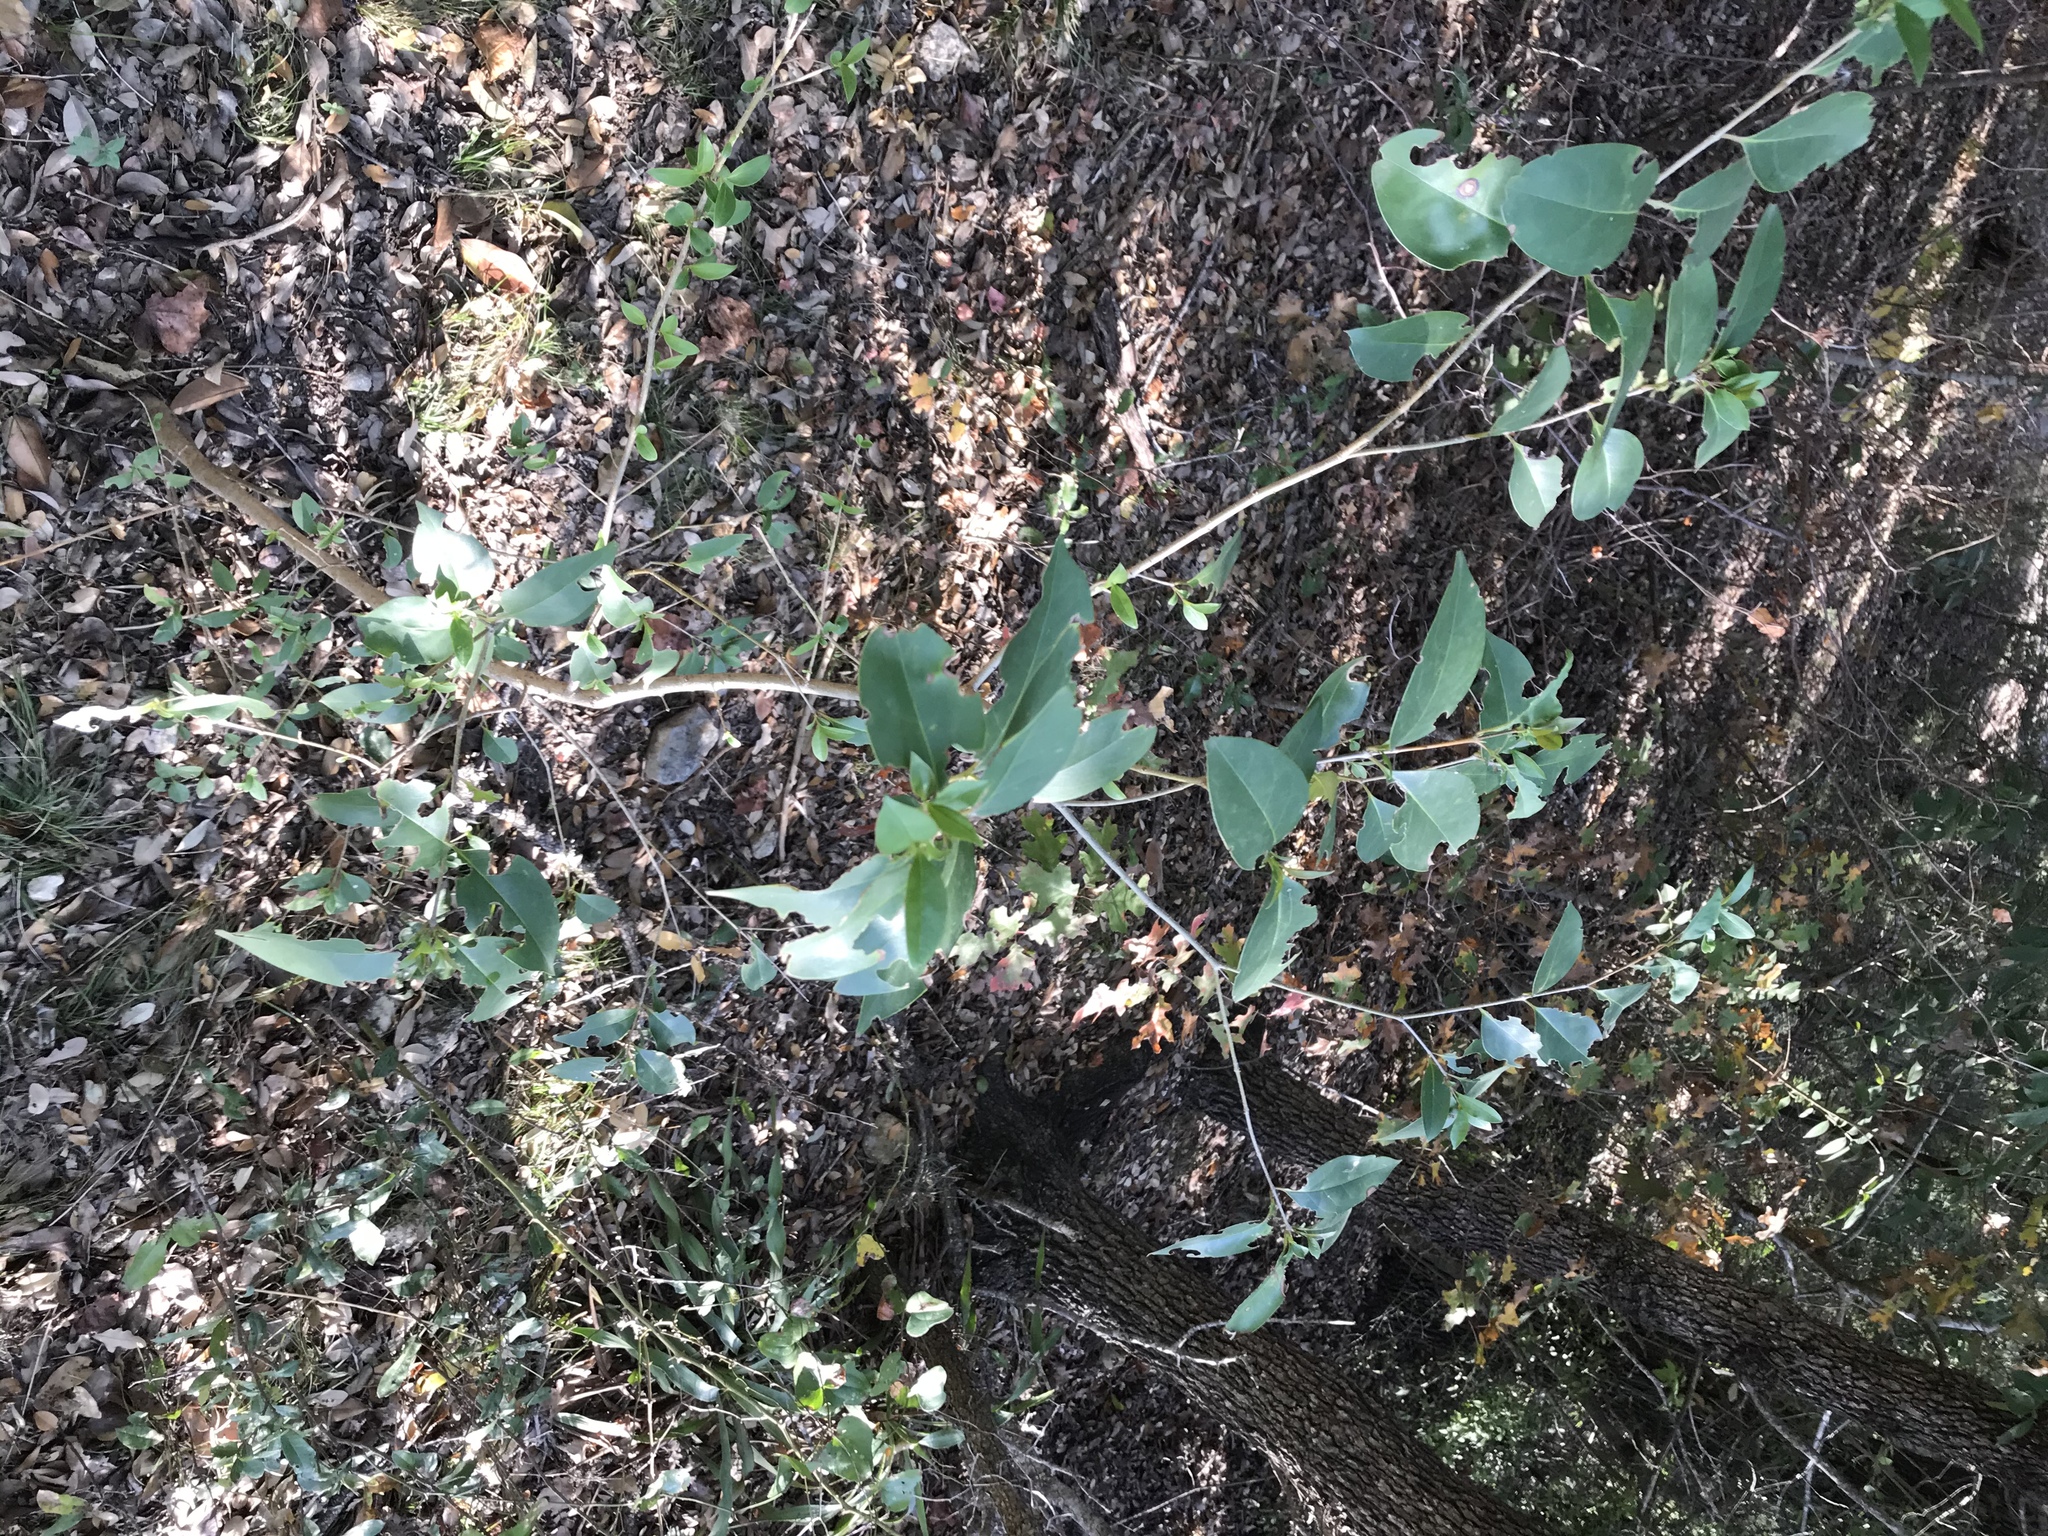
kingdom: Plantae
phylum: Tracheophyta
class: Magnoliopsida
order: Lamiales
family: Oleaceae
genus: Ligustrum
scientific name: Ligustrum lucidum
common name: Glossy privet
